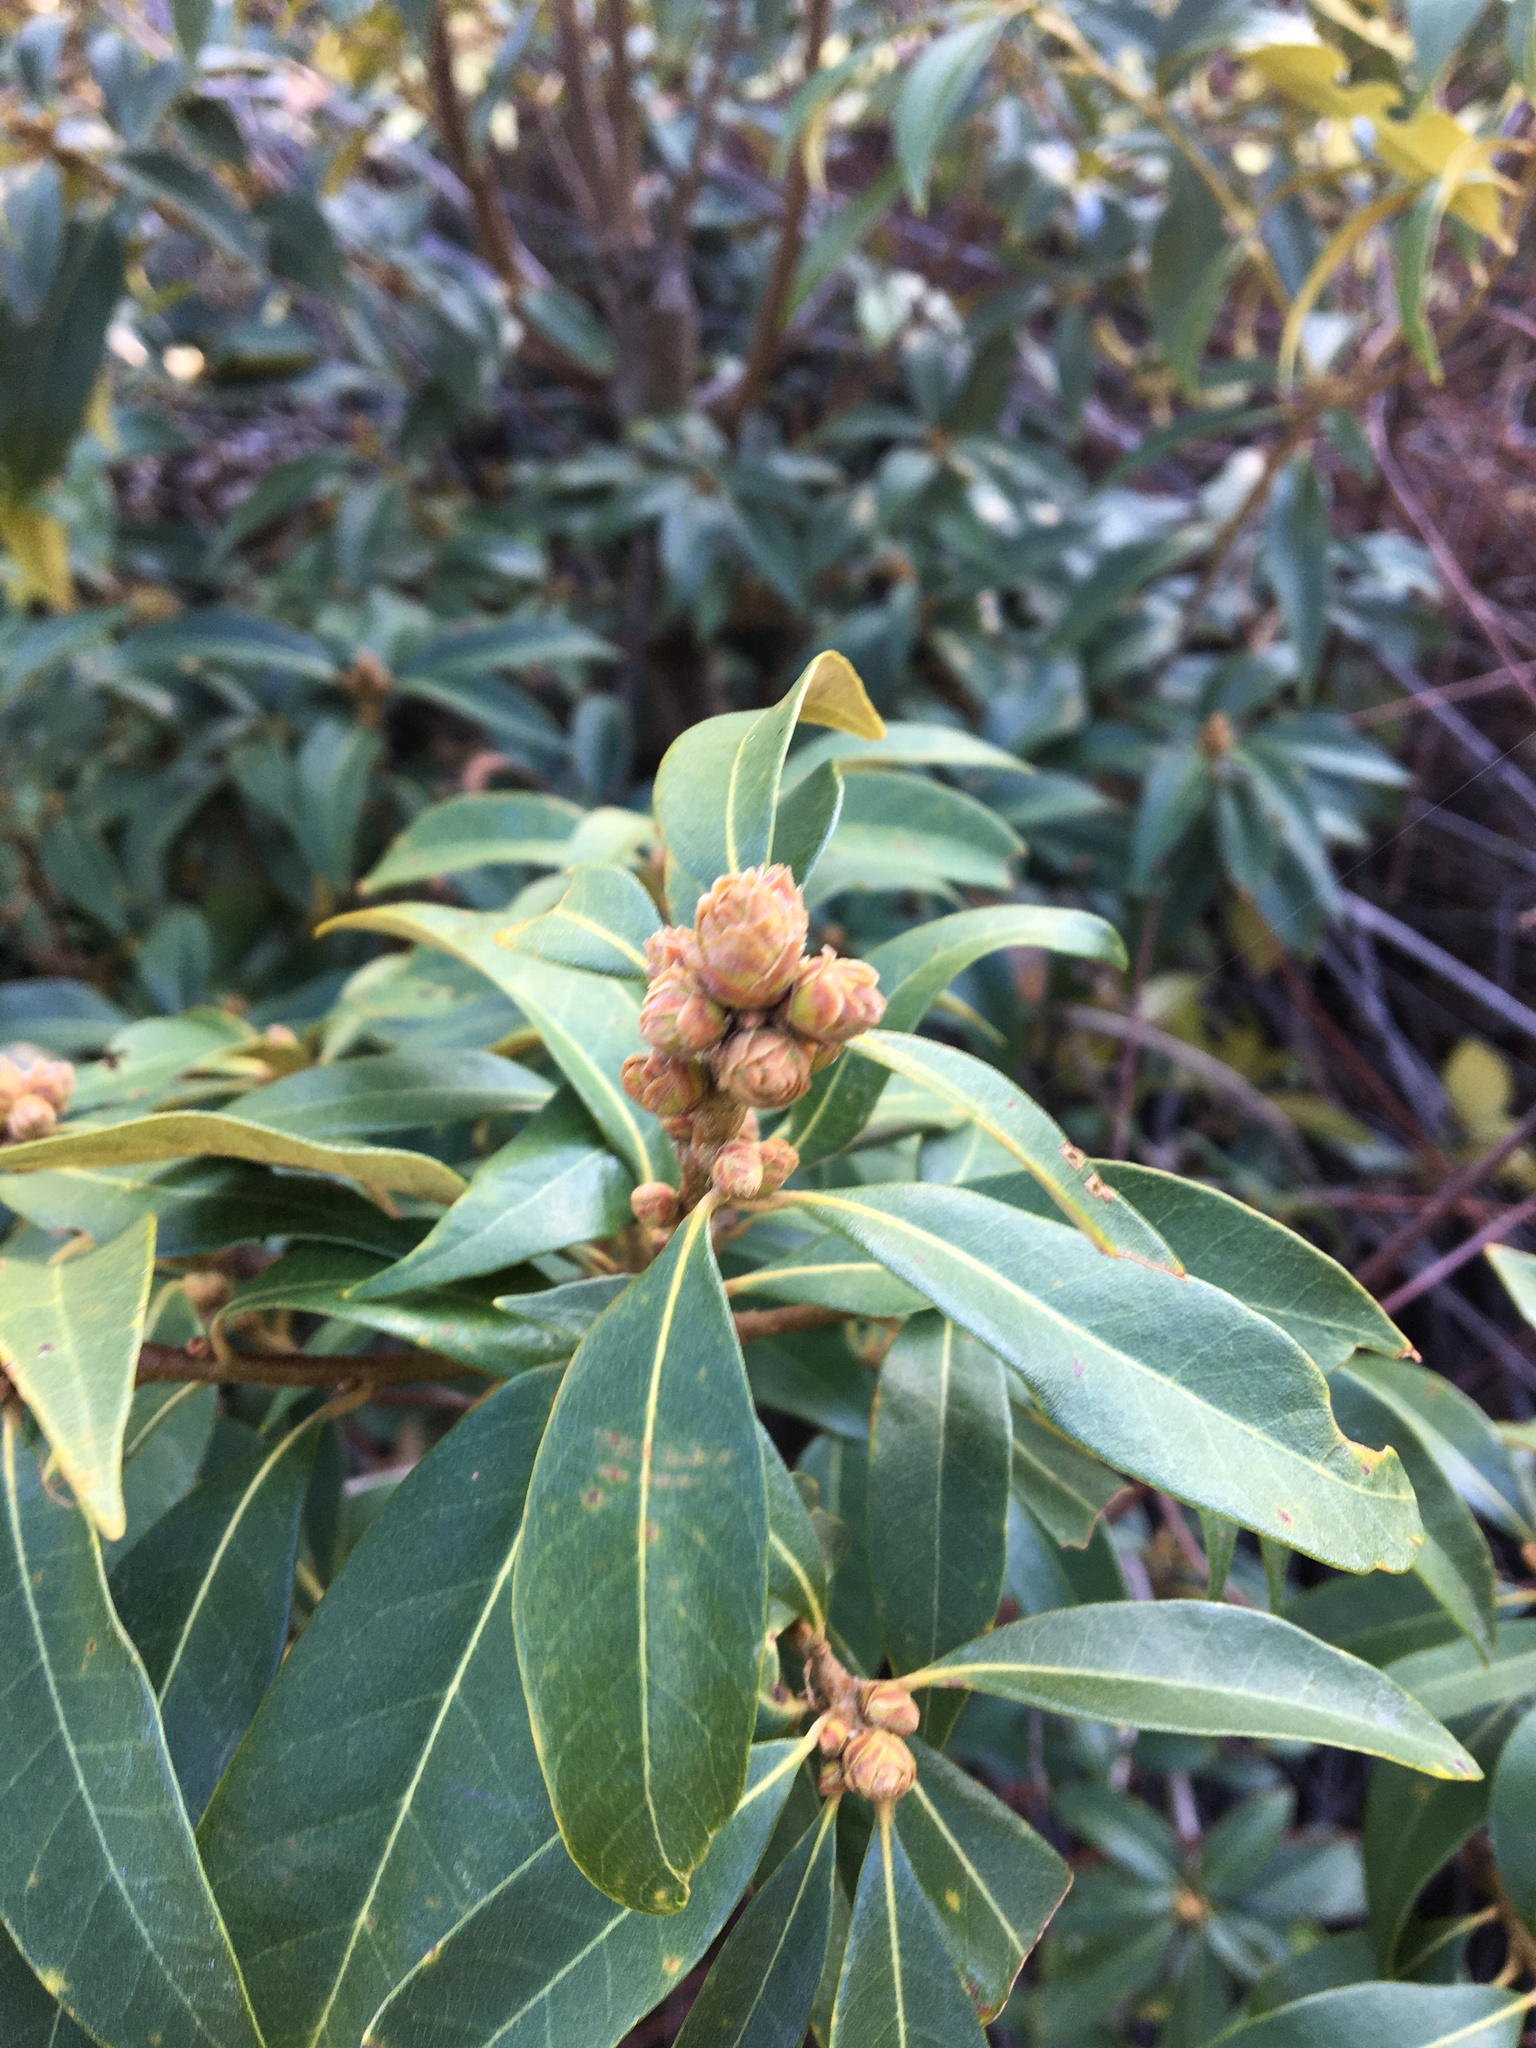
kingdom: Plantae
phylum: Tracheophyta
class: Magnoliopsida
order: Fagales
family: Fagaceae
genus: Chrysolepis
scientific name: Chrysolepis chrysophylla
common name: Giant chinquapin
